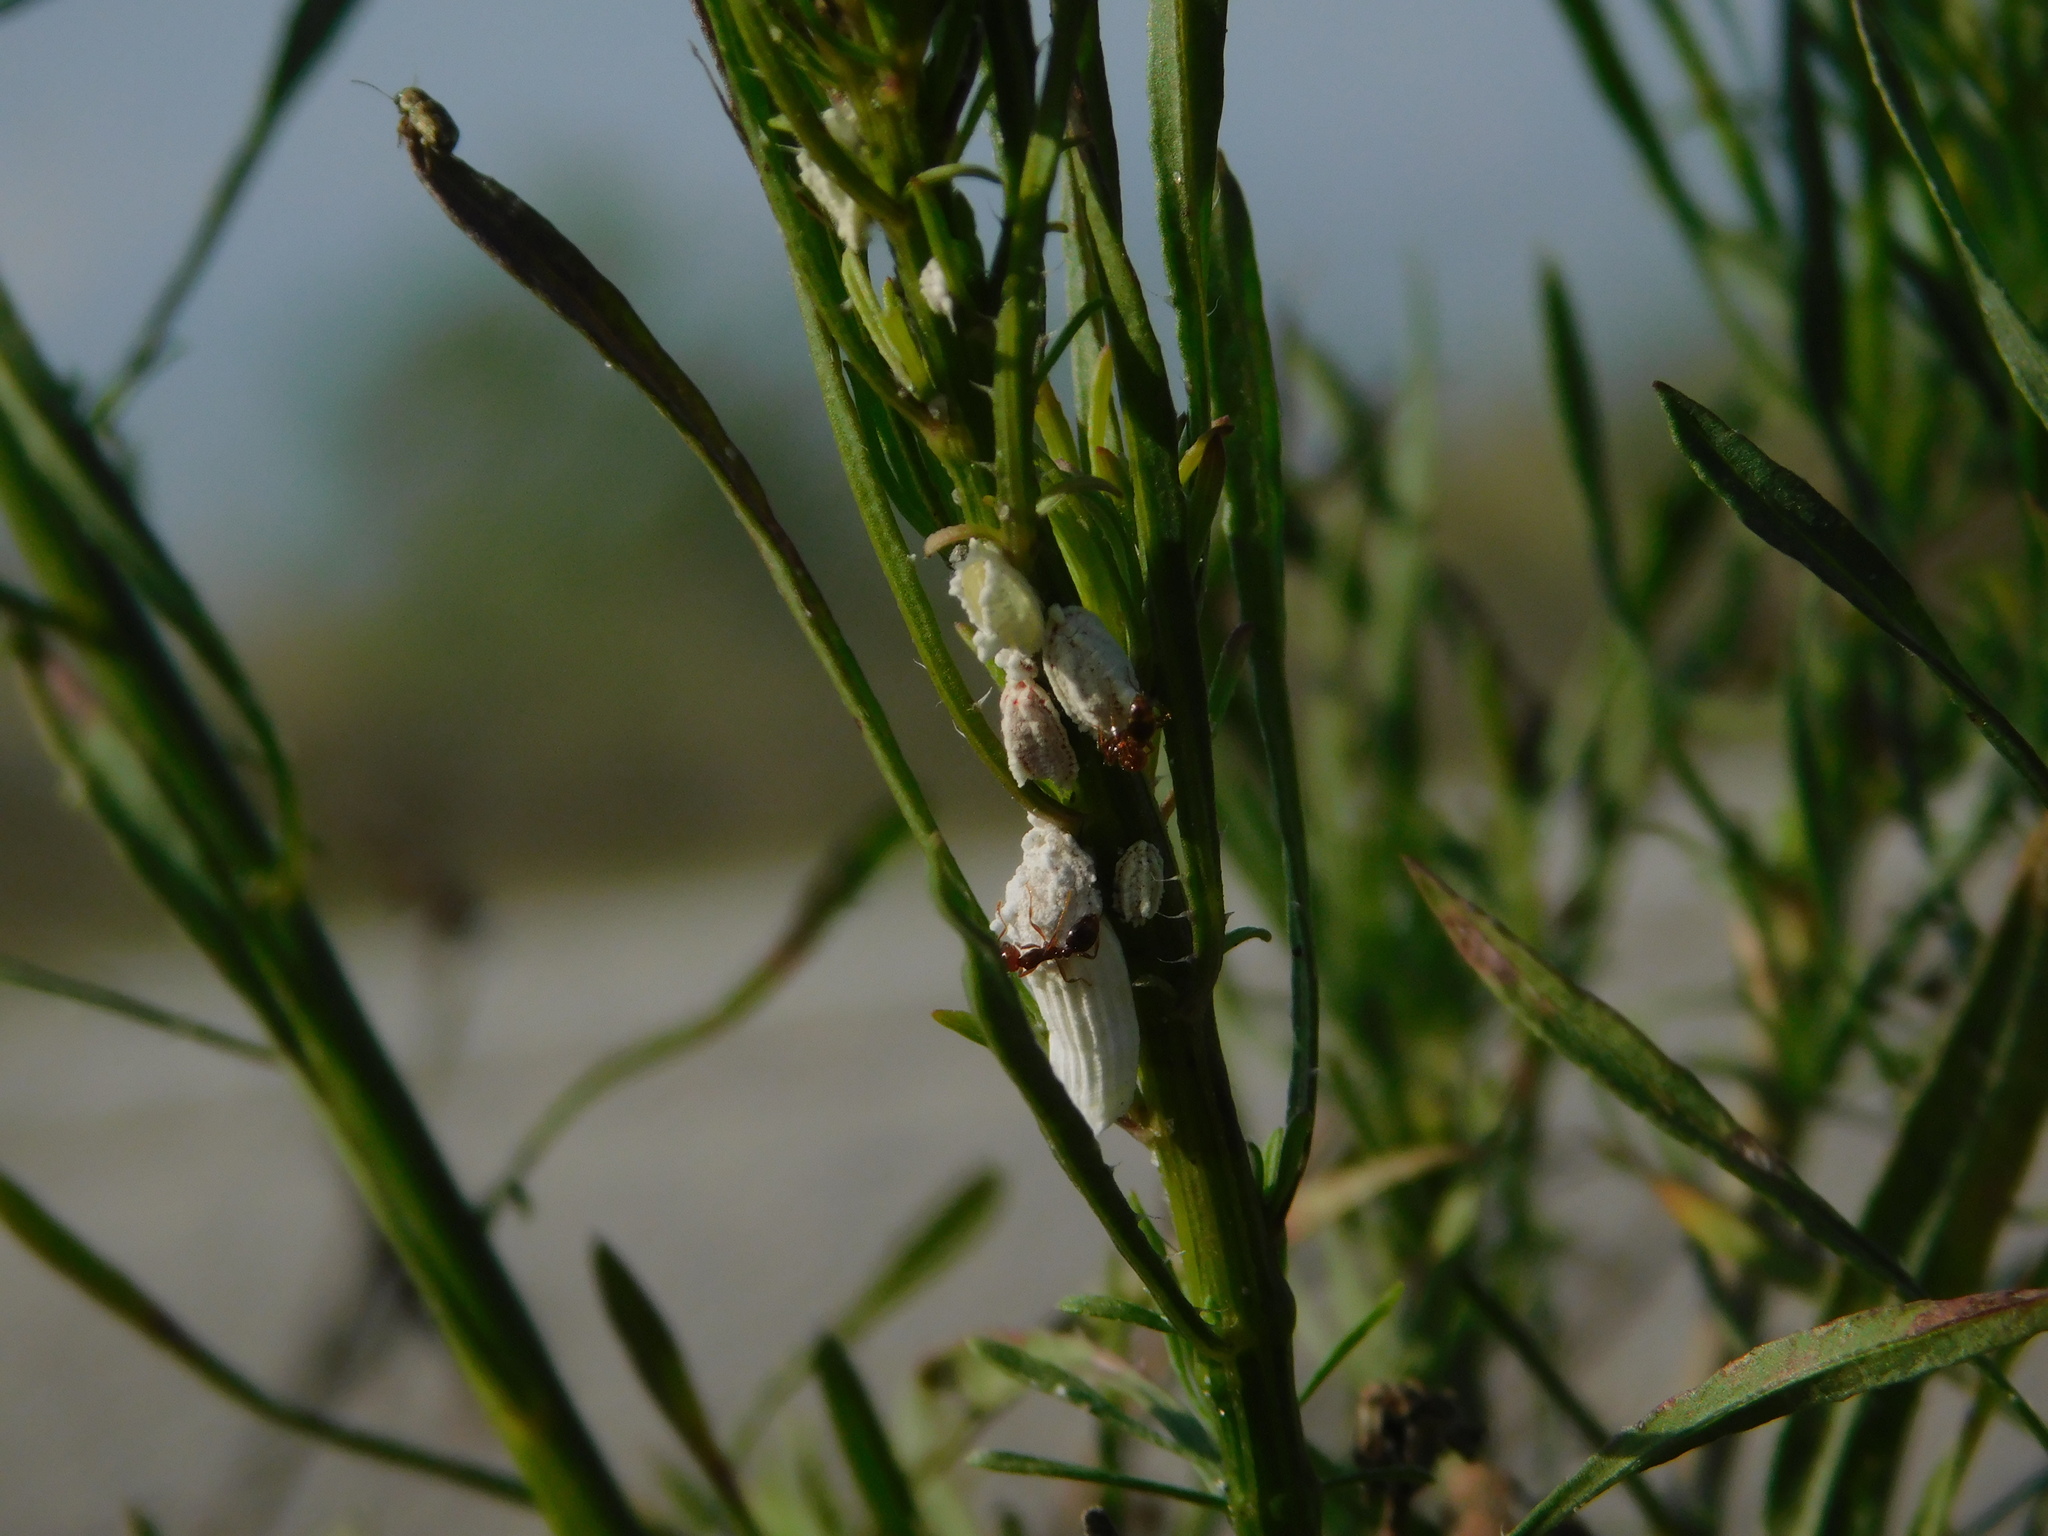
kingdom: Animalia
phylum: Arthropoda
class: Insecta
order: Hemiptera
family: Margarodidae
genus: Icerya
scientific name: Icerya purchasi
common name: Cottony cushion scale
